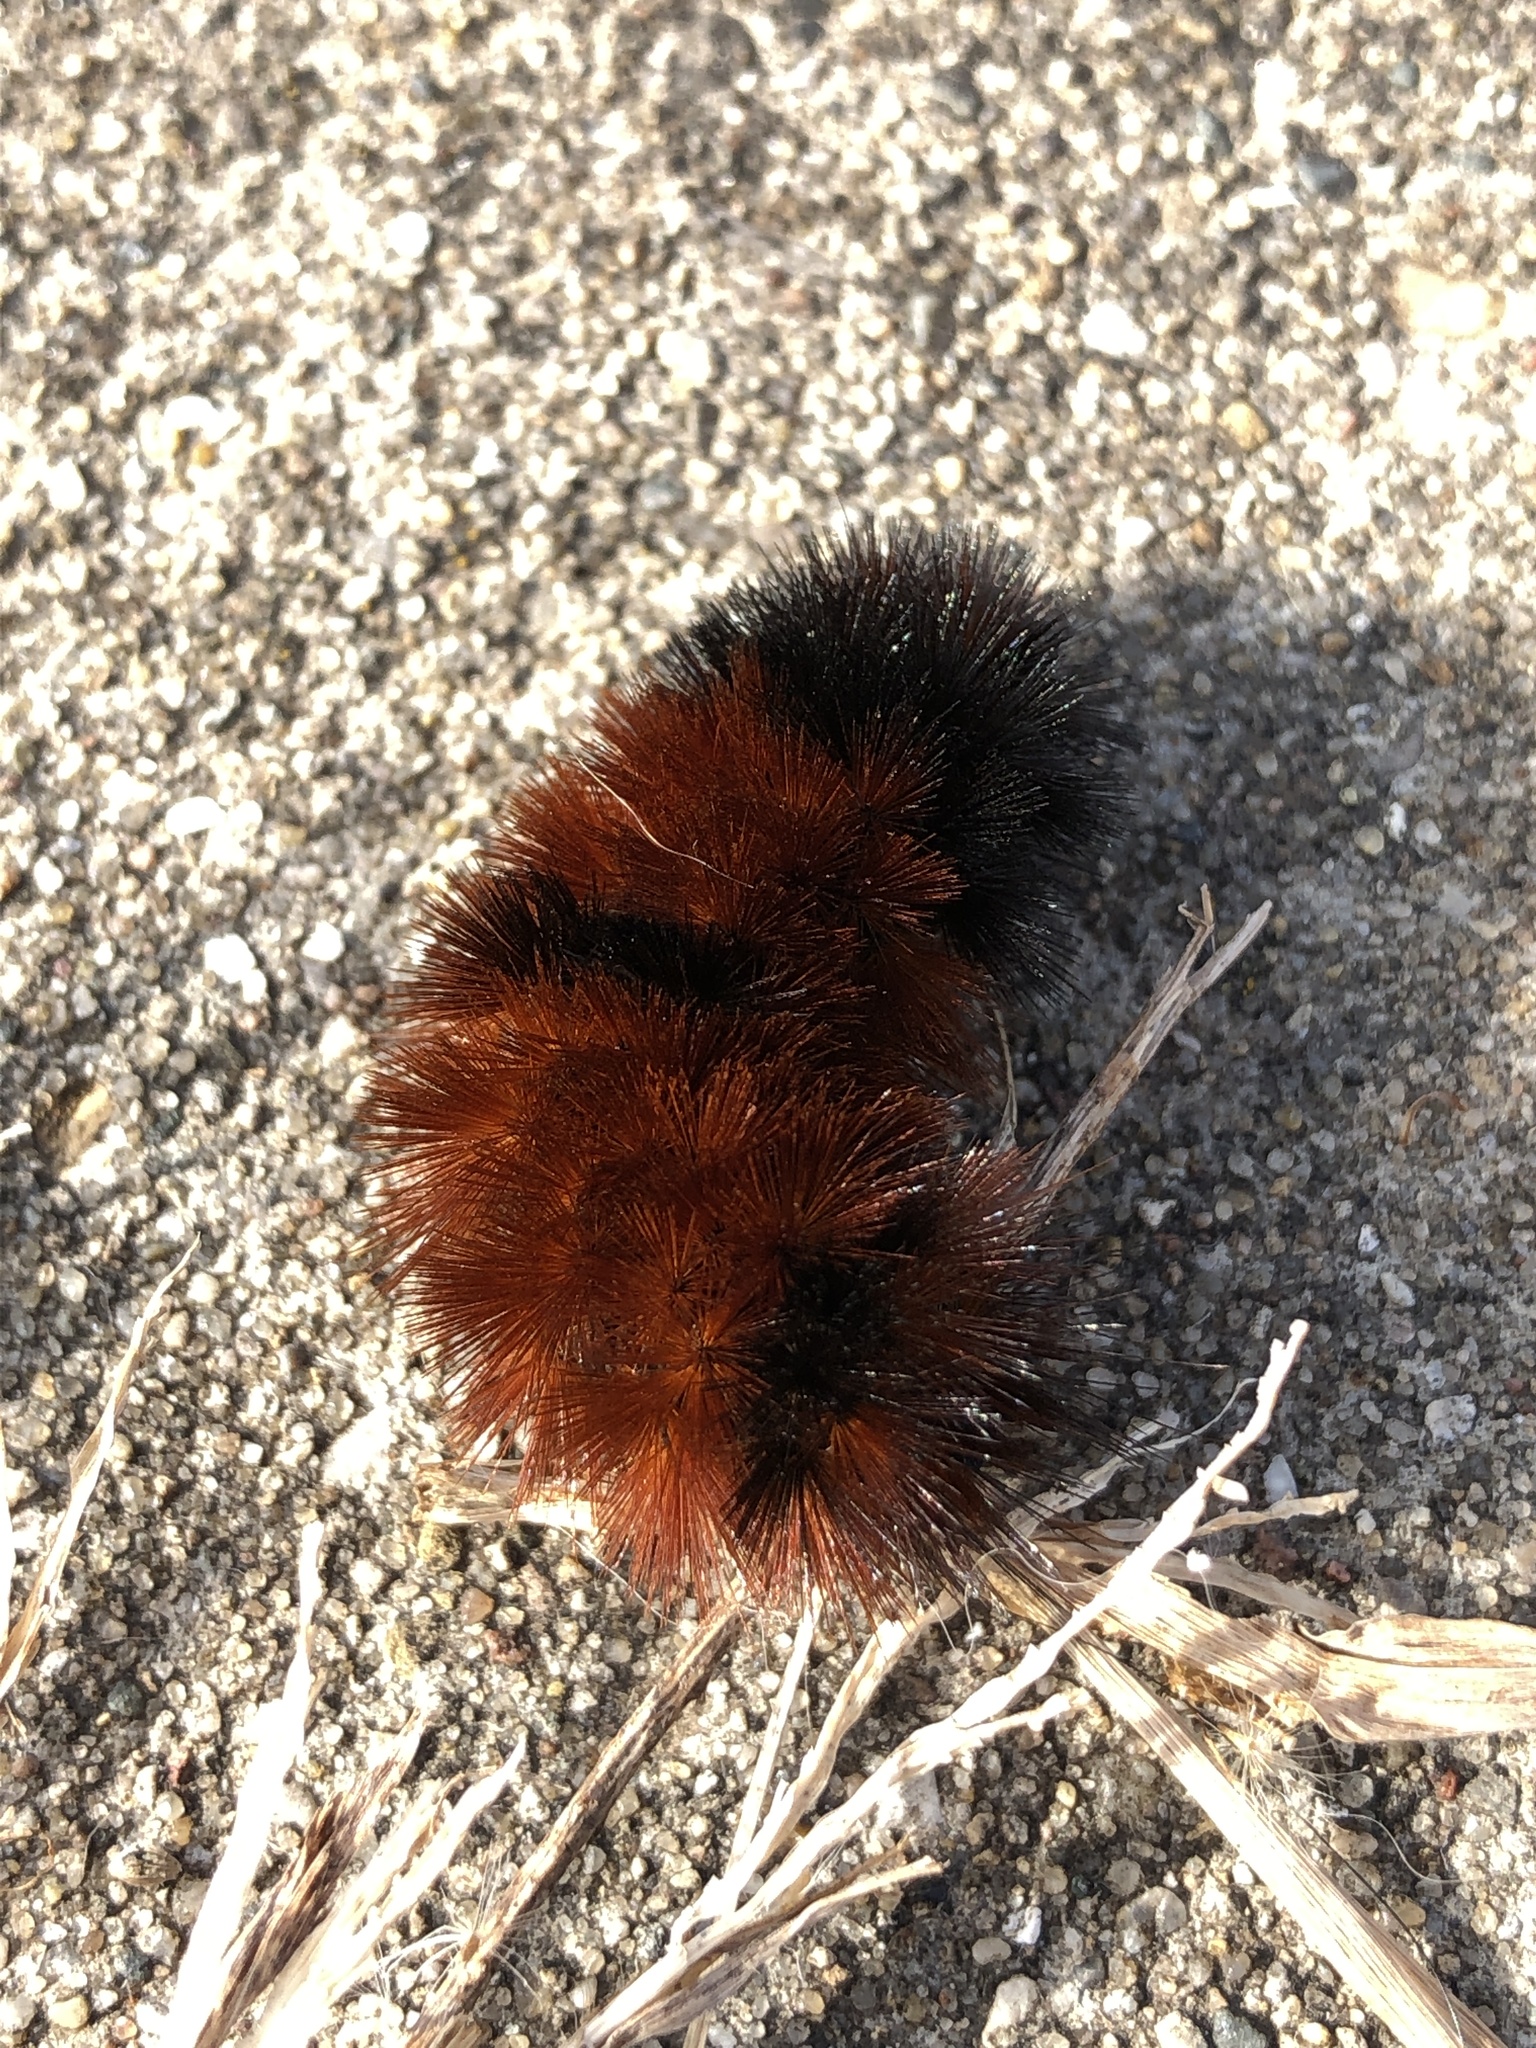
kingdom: Animalia
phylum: Arthropoda
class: Insecta
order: Lepidoptera
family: Erebidae
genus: Pyrrharctia
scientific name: Pyrrharctia isabella
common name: Isabella tiger moth
